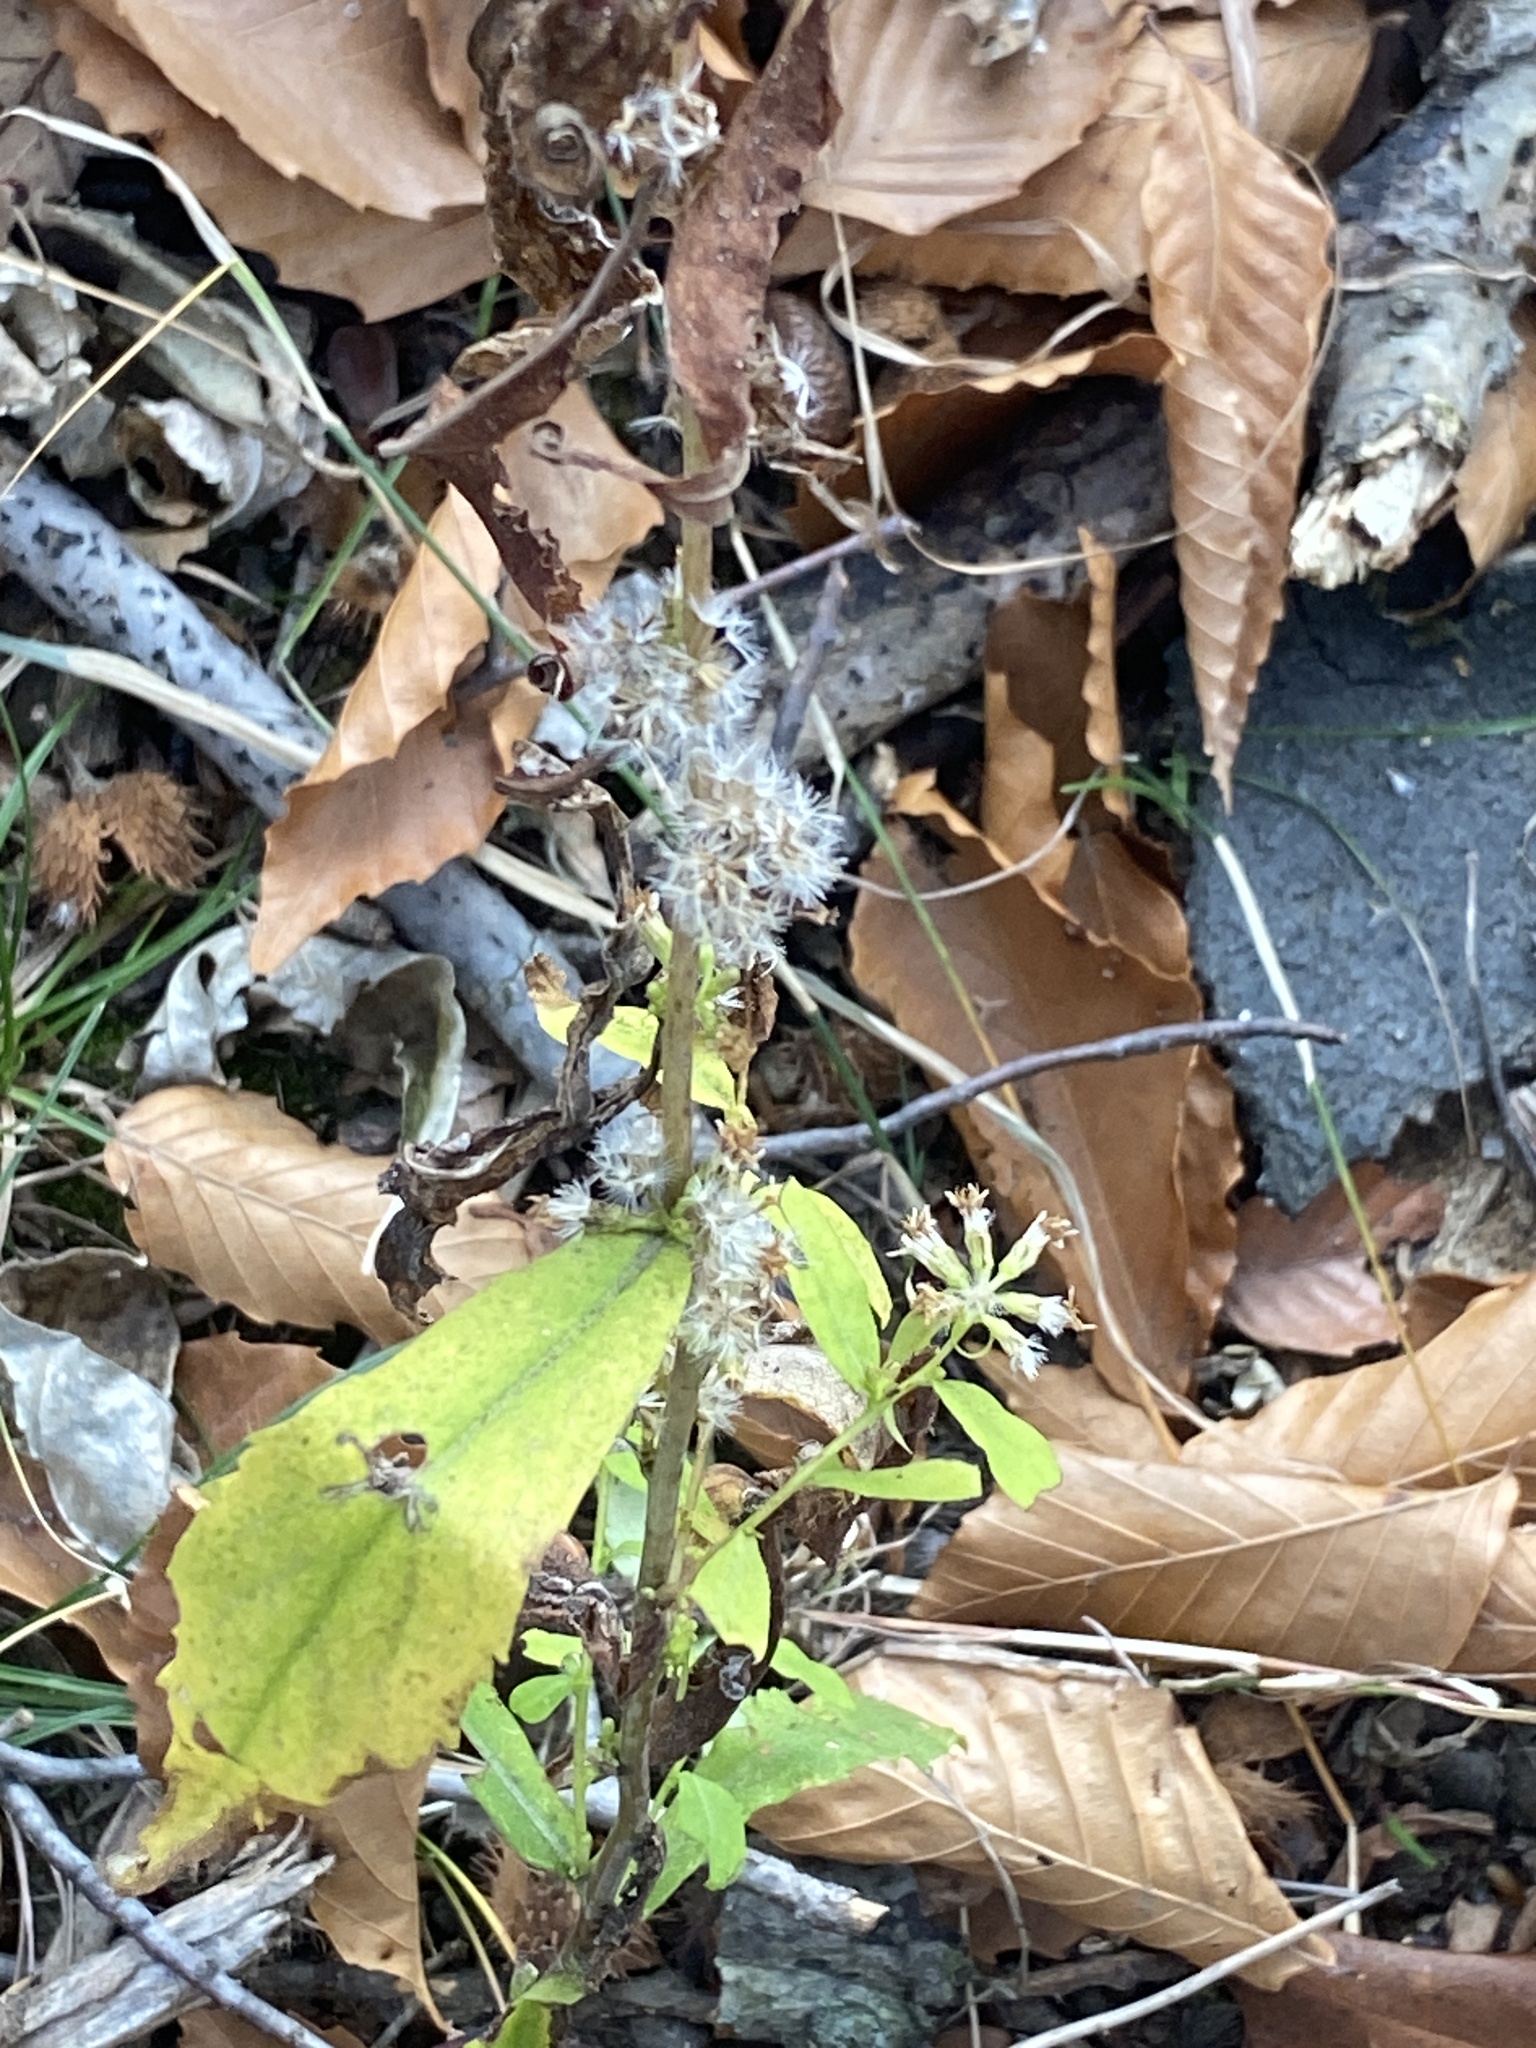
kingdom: Plantae
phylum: Tracheophyta
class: Magnoliopsida
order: Asterales
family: Asteraceae
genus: Solidago
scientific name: Solidago caesia
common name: Woodland goldenrod
